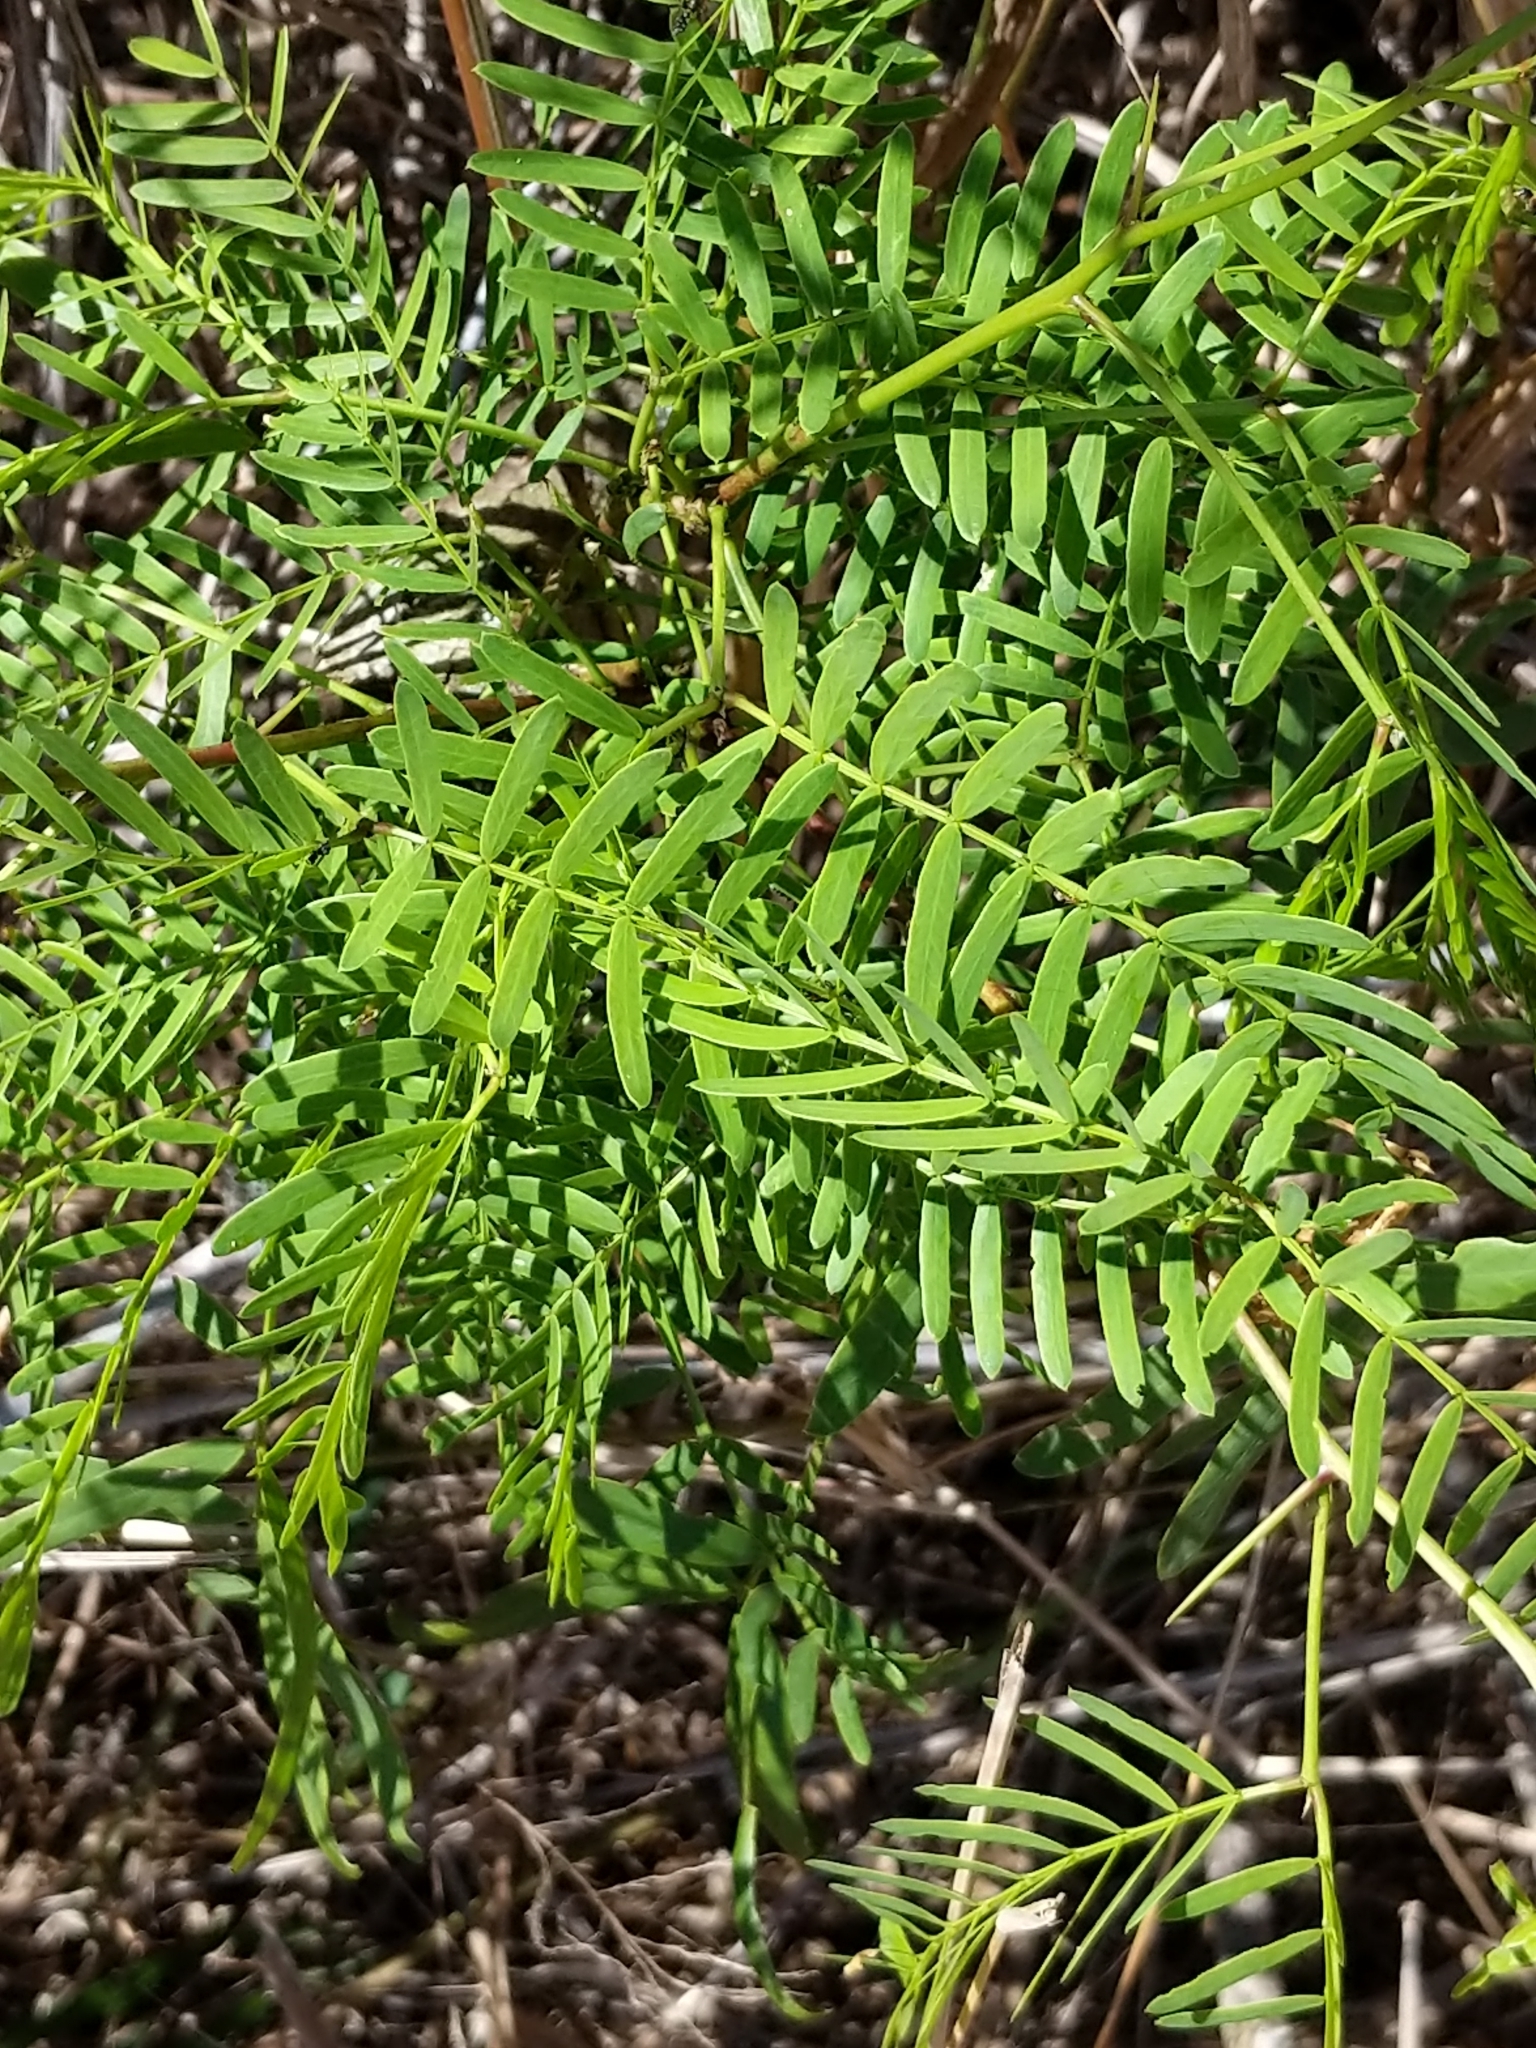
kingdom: Plantae
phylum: Tracheophyta
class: Magnoliopsida
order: Fabales
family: Fabaceae
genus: Prosopis
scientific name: Prosopis glandulosa
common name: Honey mesquite
